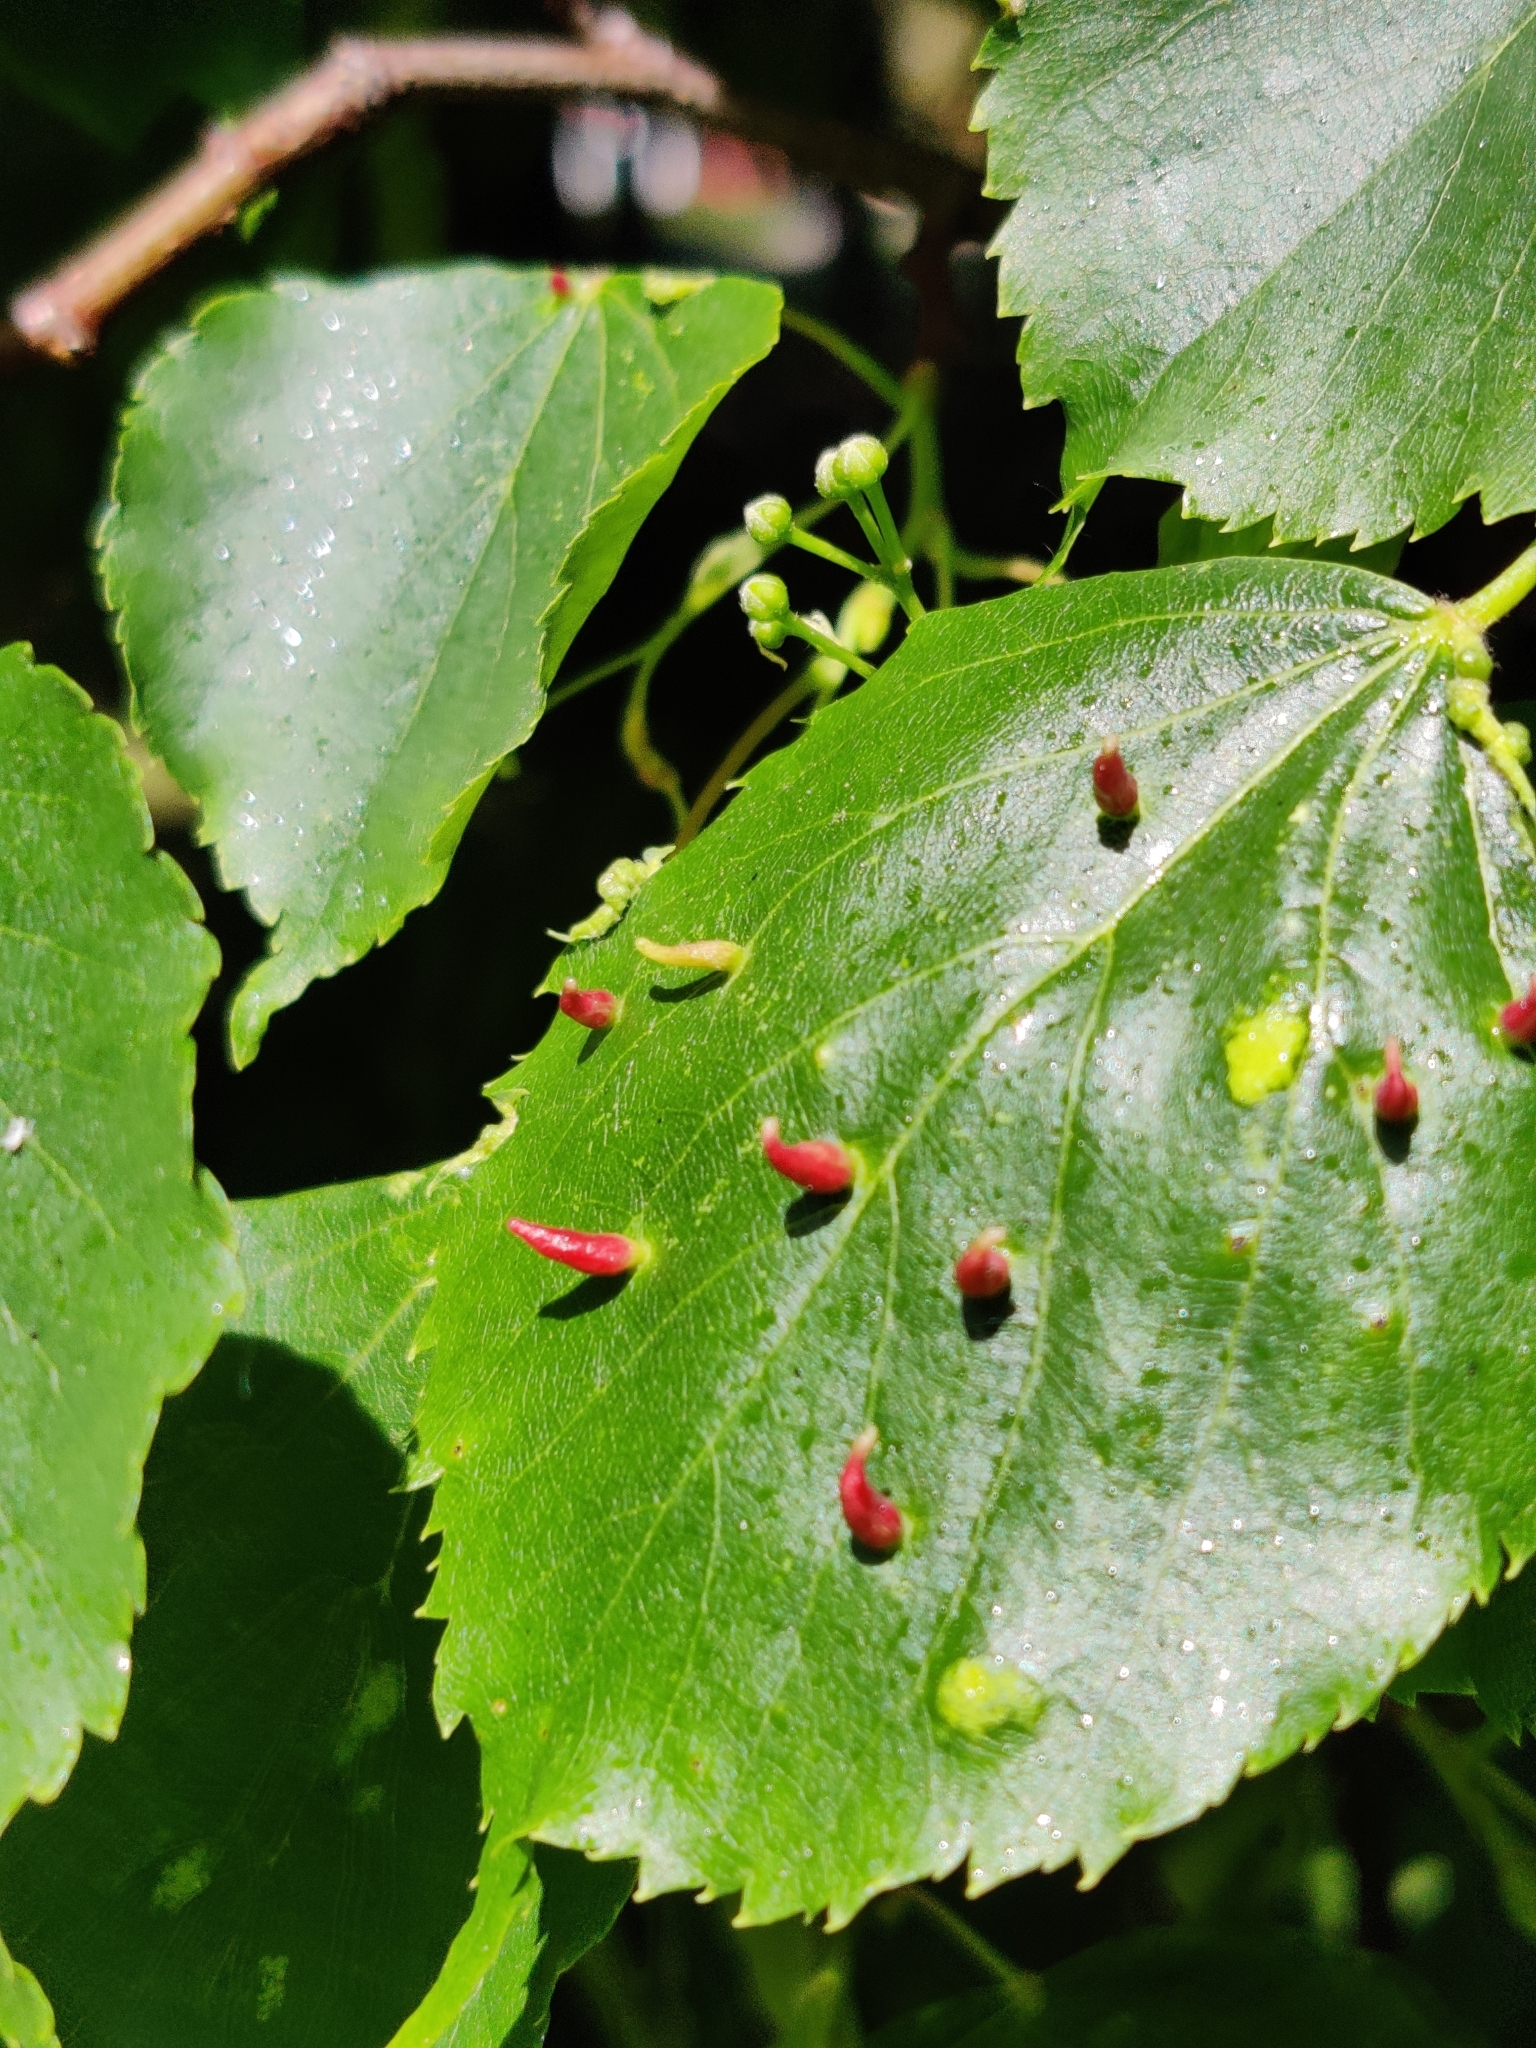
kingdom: Animalia
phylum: Arthropoda
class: Arachnida
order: Trombidiformes
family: Eriophyidae
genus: Eriophyes
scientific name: Eriophyes tiliae
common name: Red nail gall mite
